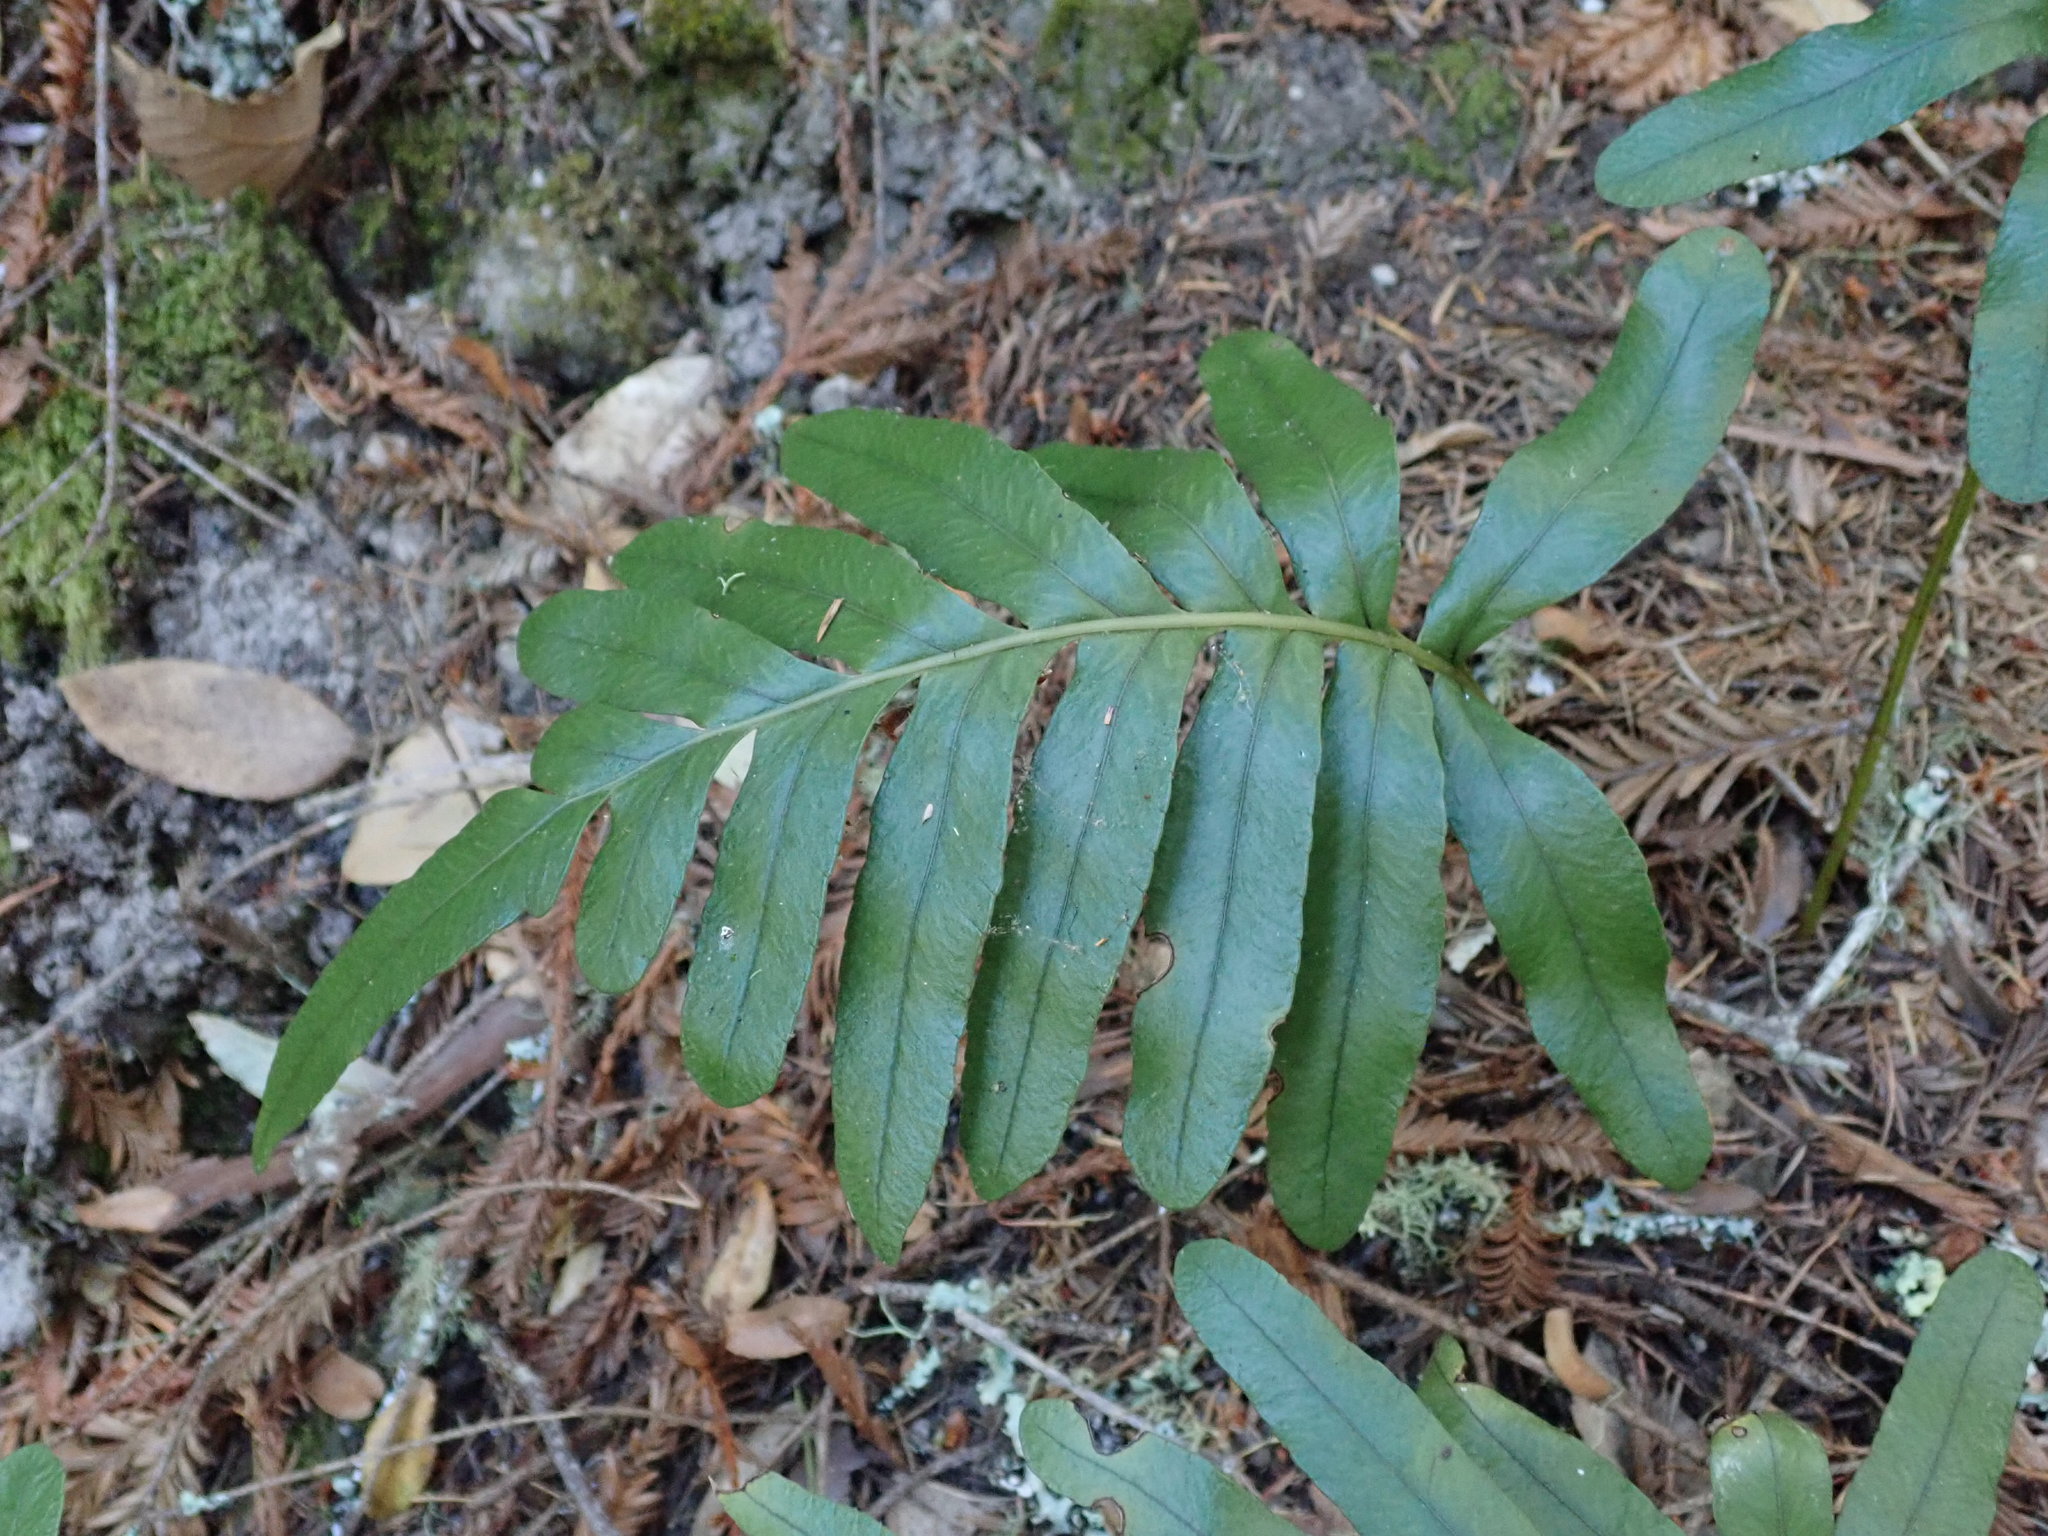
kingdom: Plantae
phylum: Tracheophyta
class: Polypodiopsida
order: Polypodiales
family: Polypodiaceae
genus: Polypodium
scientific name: Polypodium scouleri
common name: Scouler's polypody
